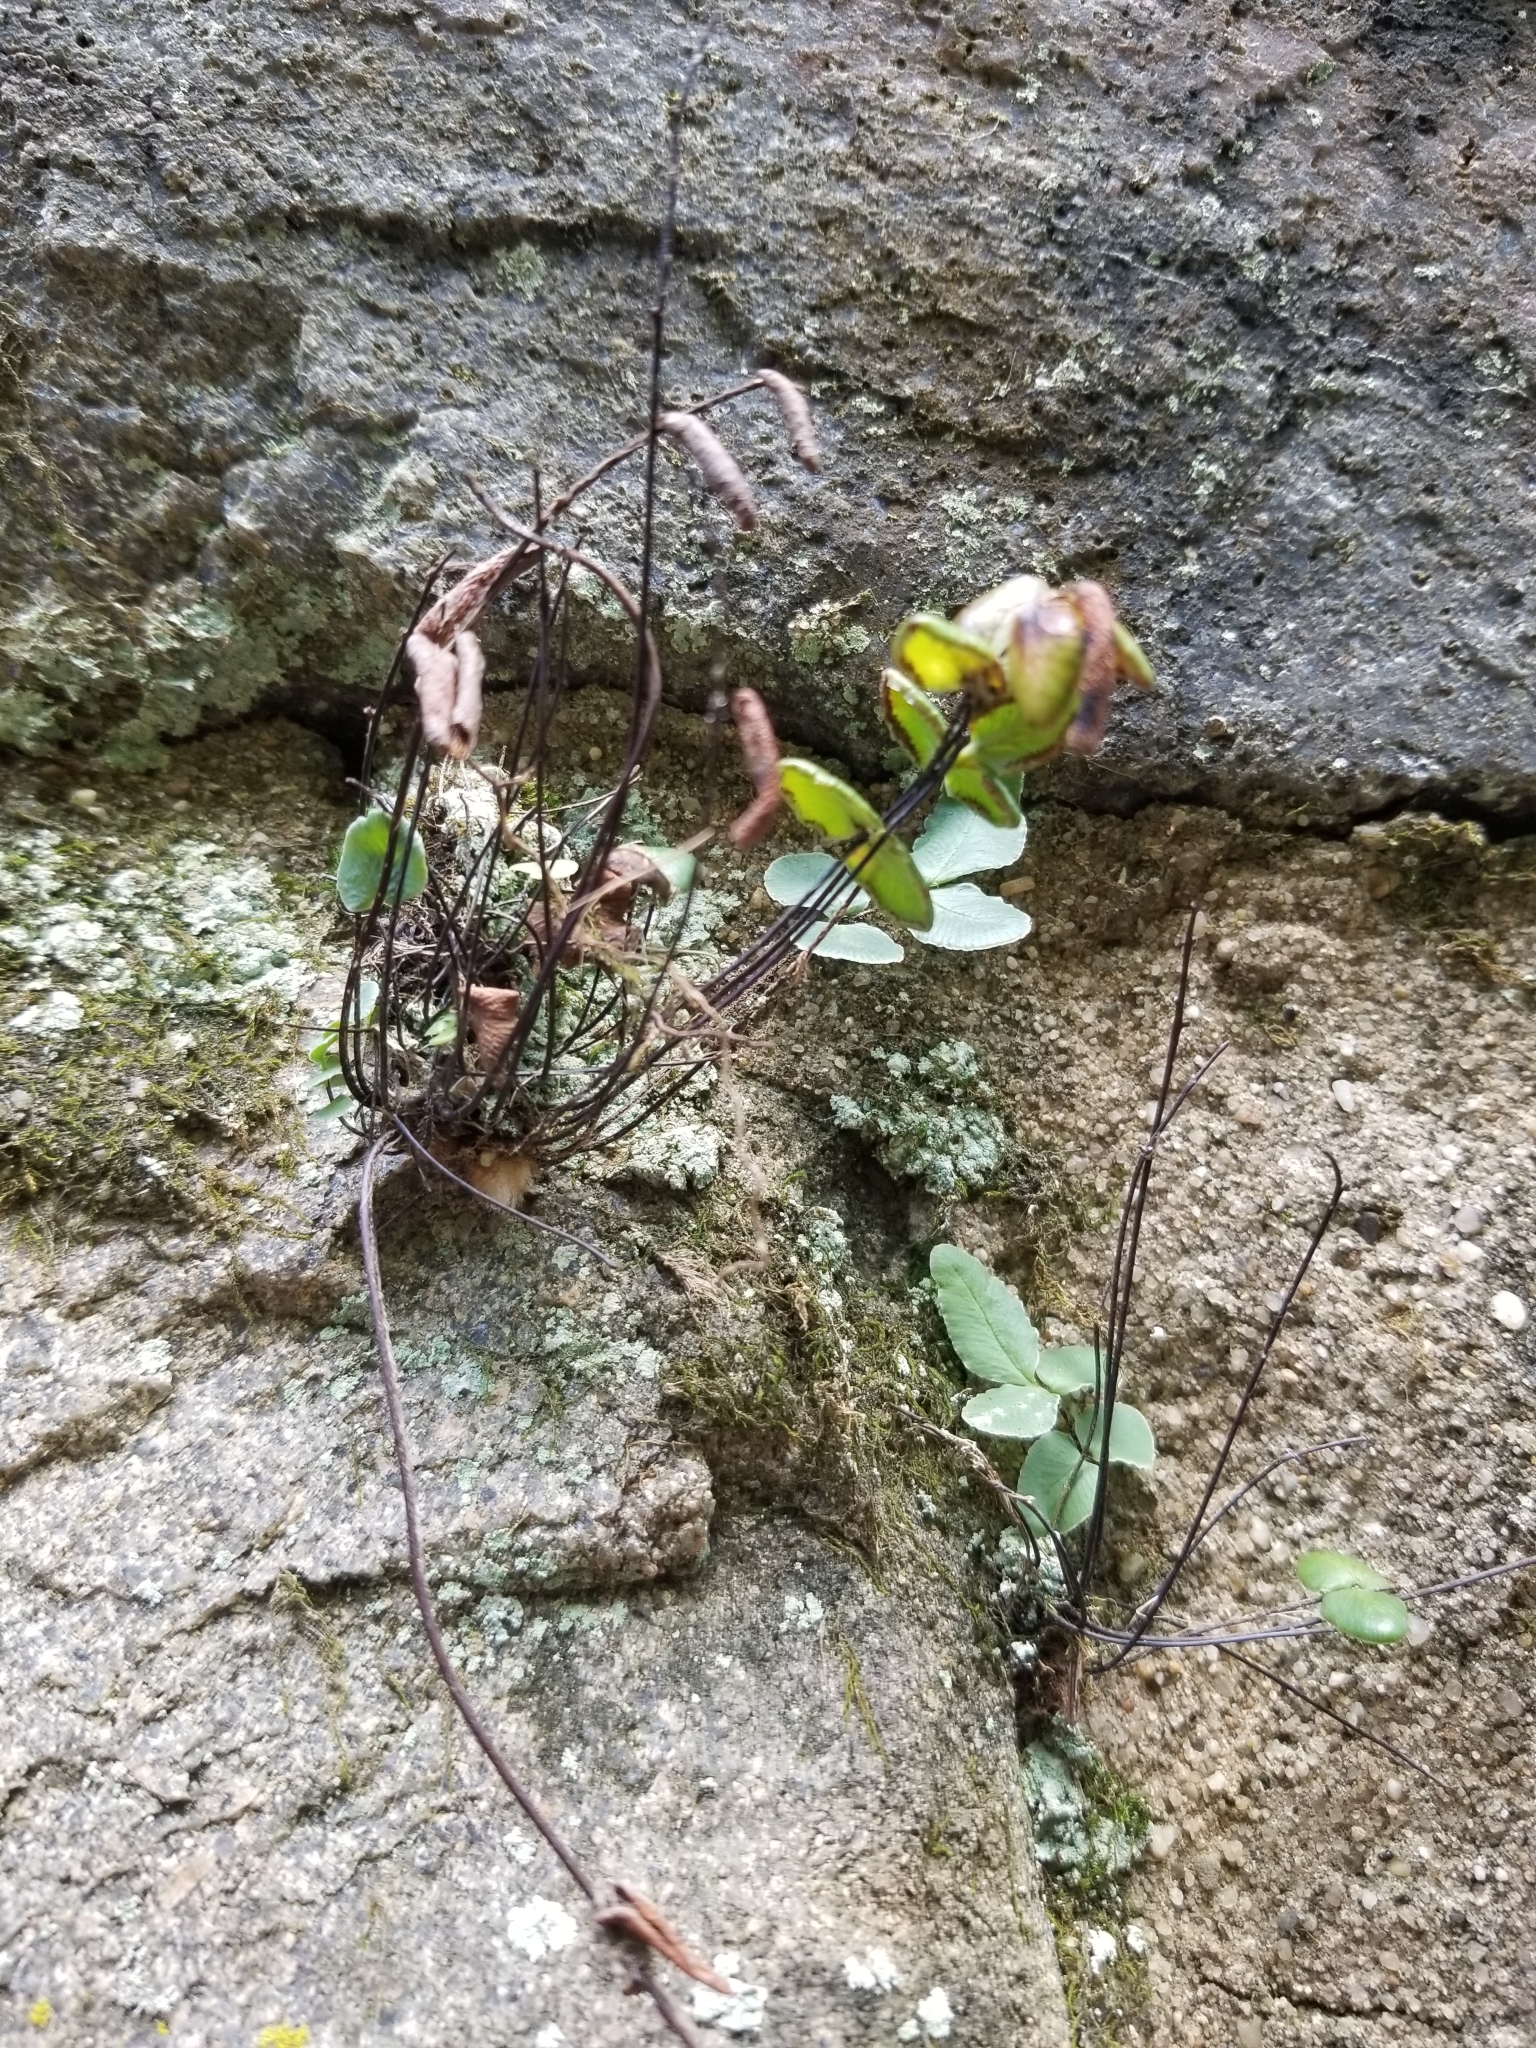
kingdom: Plantae
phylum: Tracheophyta
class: Polypodiopsida
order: Polypodiales
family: Pteridaceae
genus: Pellaea
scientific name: Pellaea atropurpurea
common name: Hairy cliffbrake
